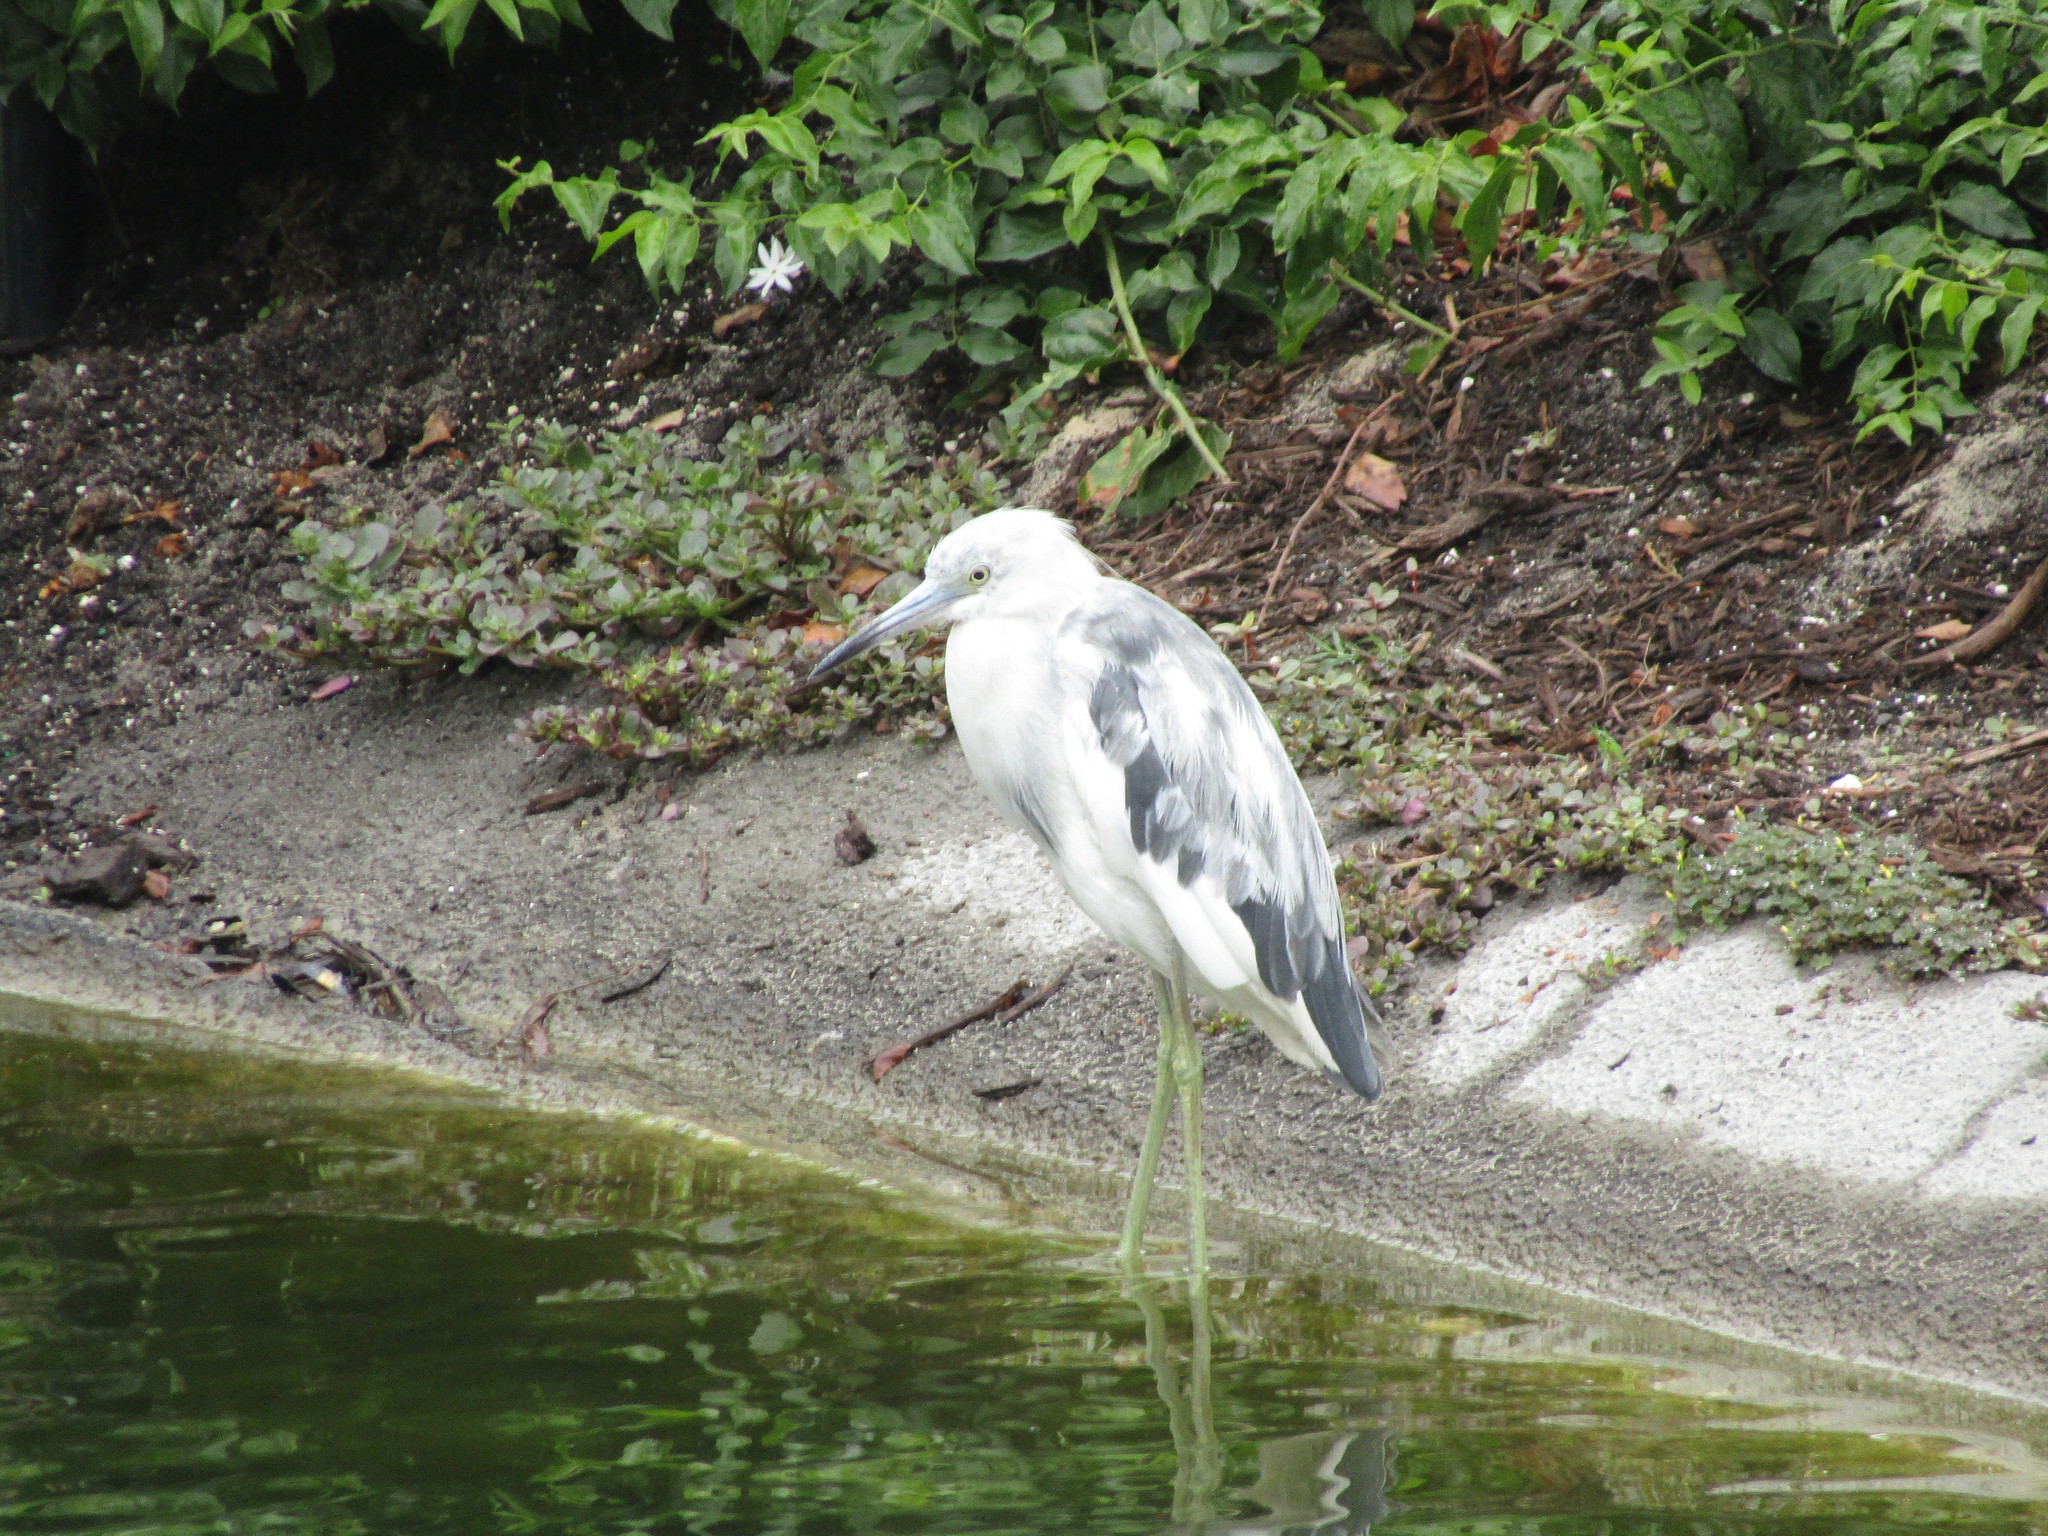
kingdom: Animalia
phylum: Chordata
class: Aves
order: Pelecaniformes
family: Ardeidae
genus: Egretta
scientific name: Egretta caerulea
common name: Little blue heron
